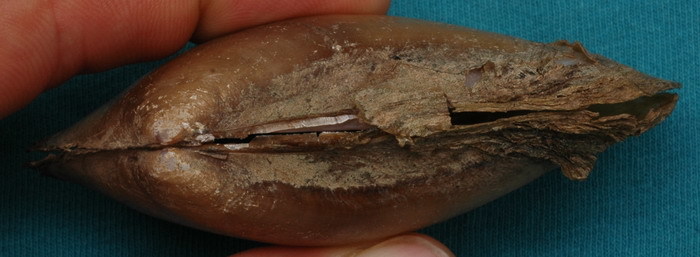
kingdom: Animalia
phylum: Mollusca
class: Bivalvia
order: Unionida
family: Unionidae
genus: Potamilus
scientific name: Potamilus fragilis
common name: Fragile papershell
